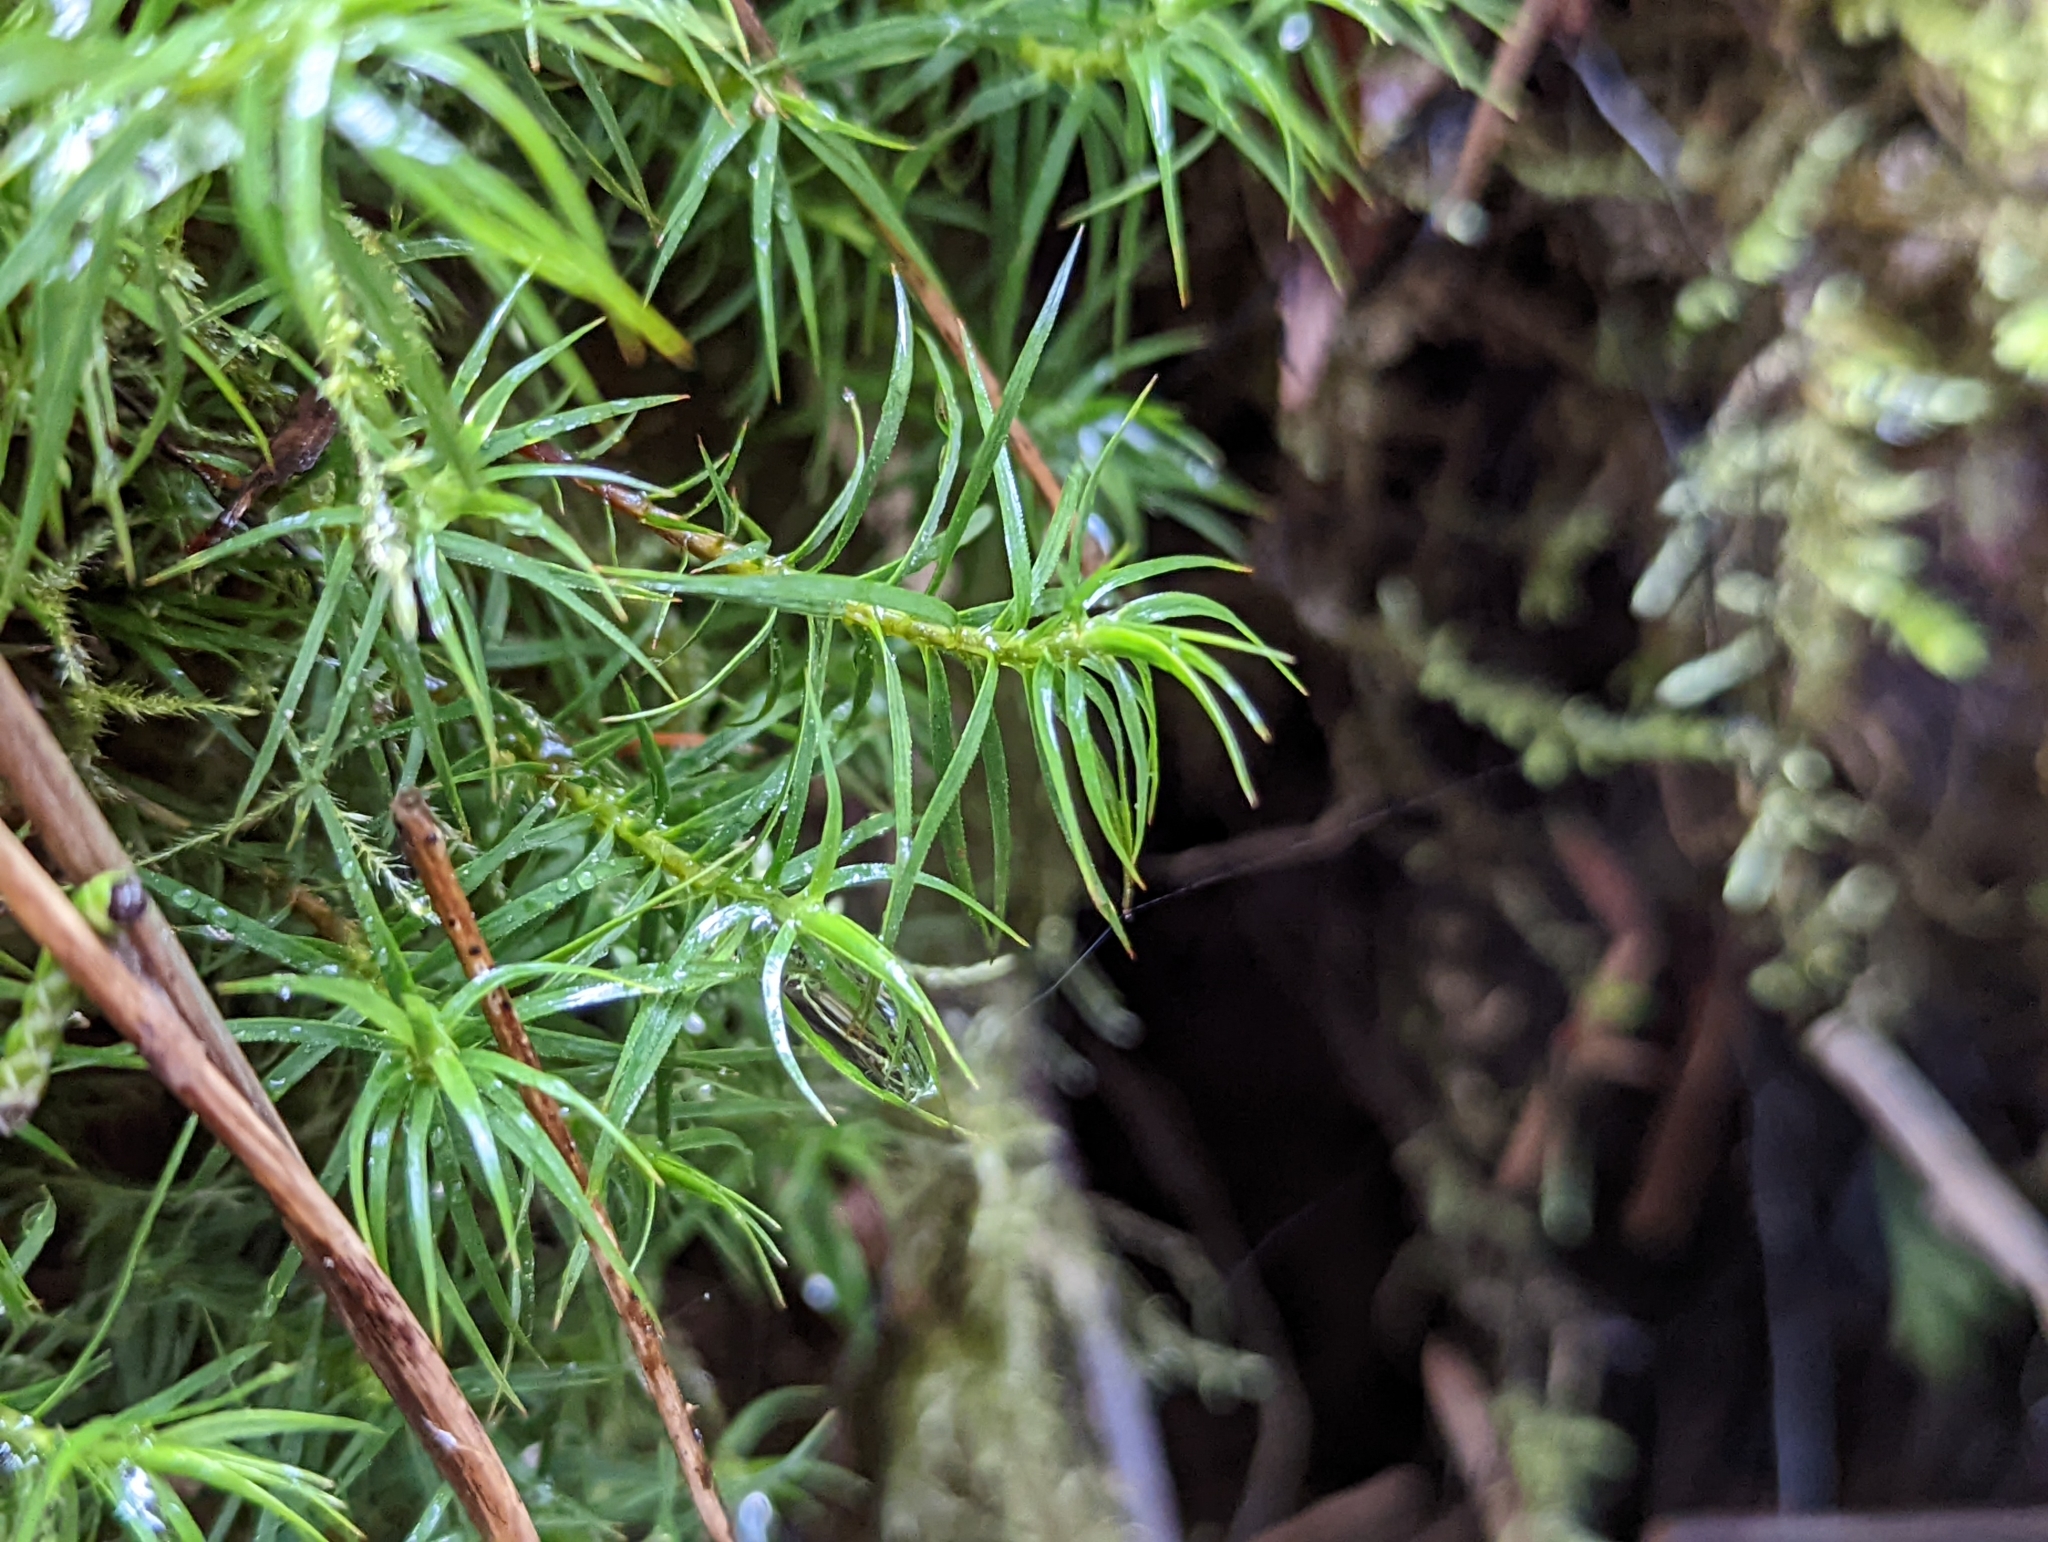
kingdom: Plantae
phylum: Bryophyta
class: Polytrichopsida
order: Polytrichales
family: Polytrichaceae
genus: Polytrichastrum
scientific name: Polytrichastrum alpinum
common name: Alpine haircap
